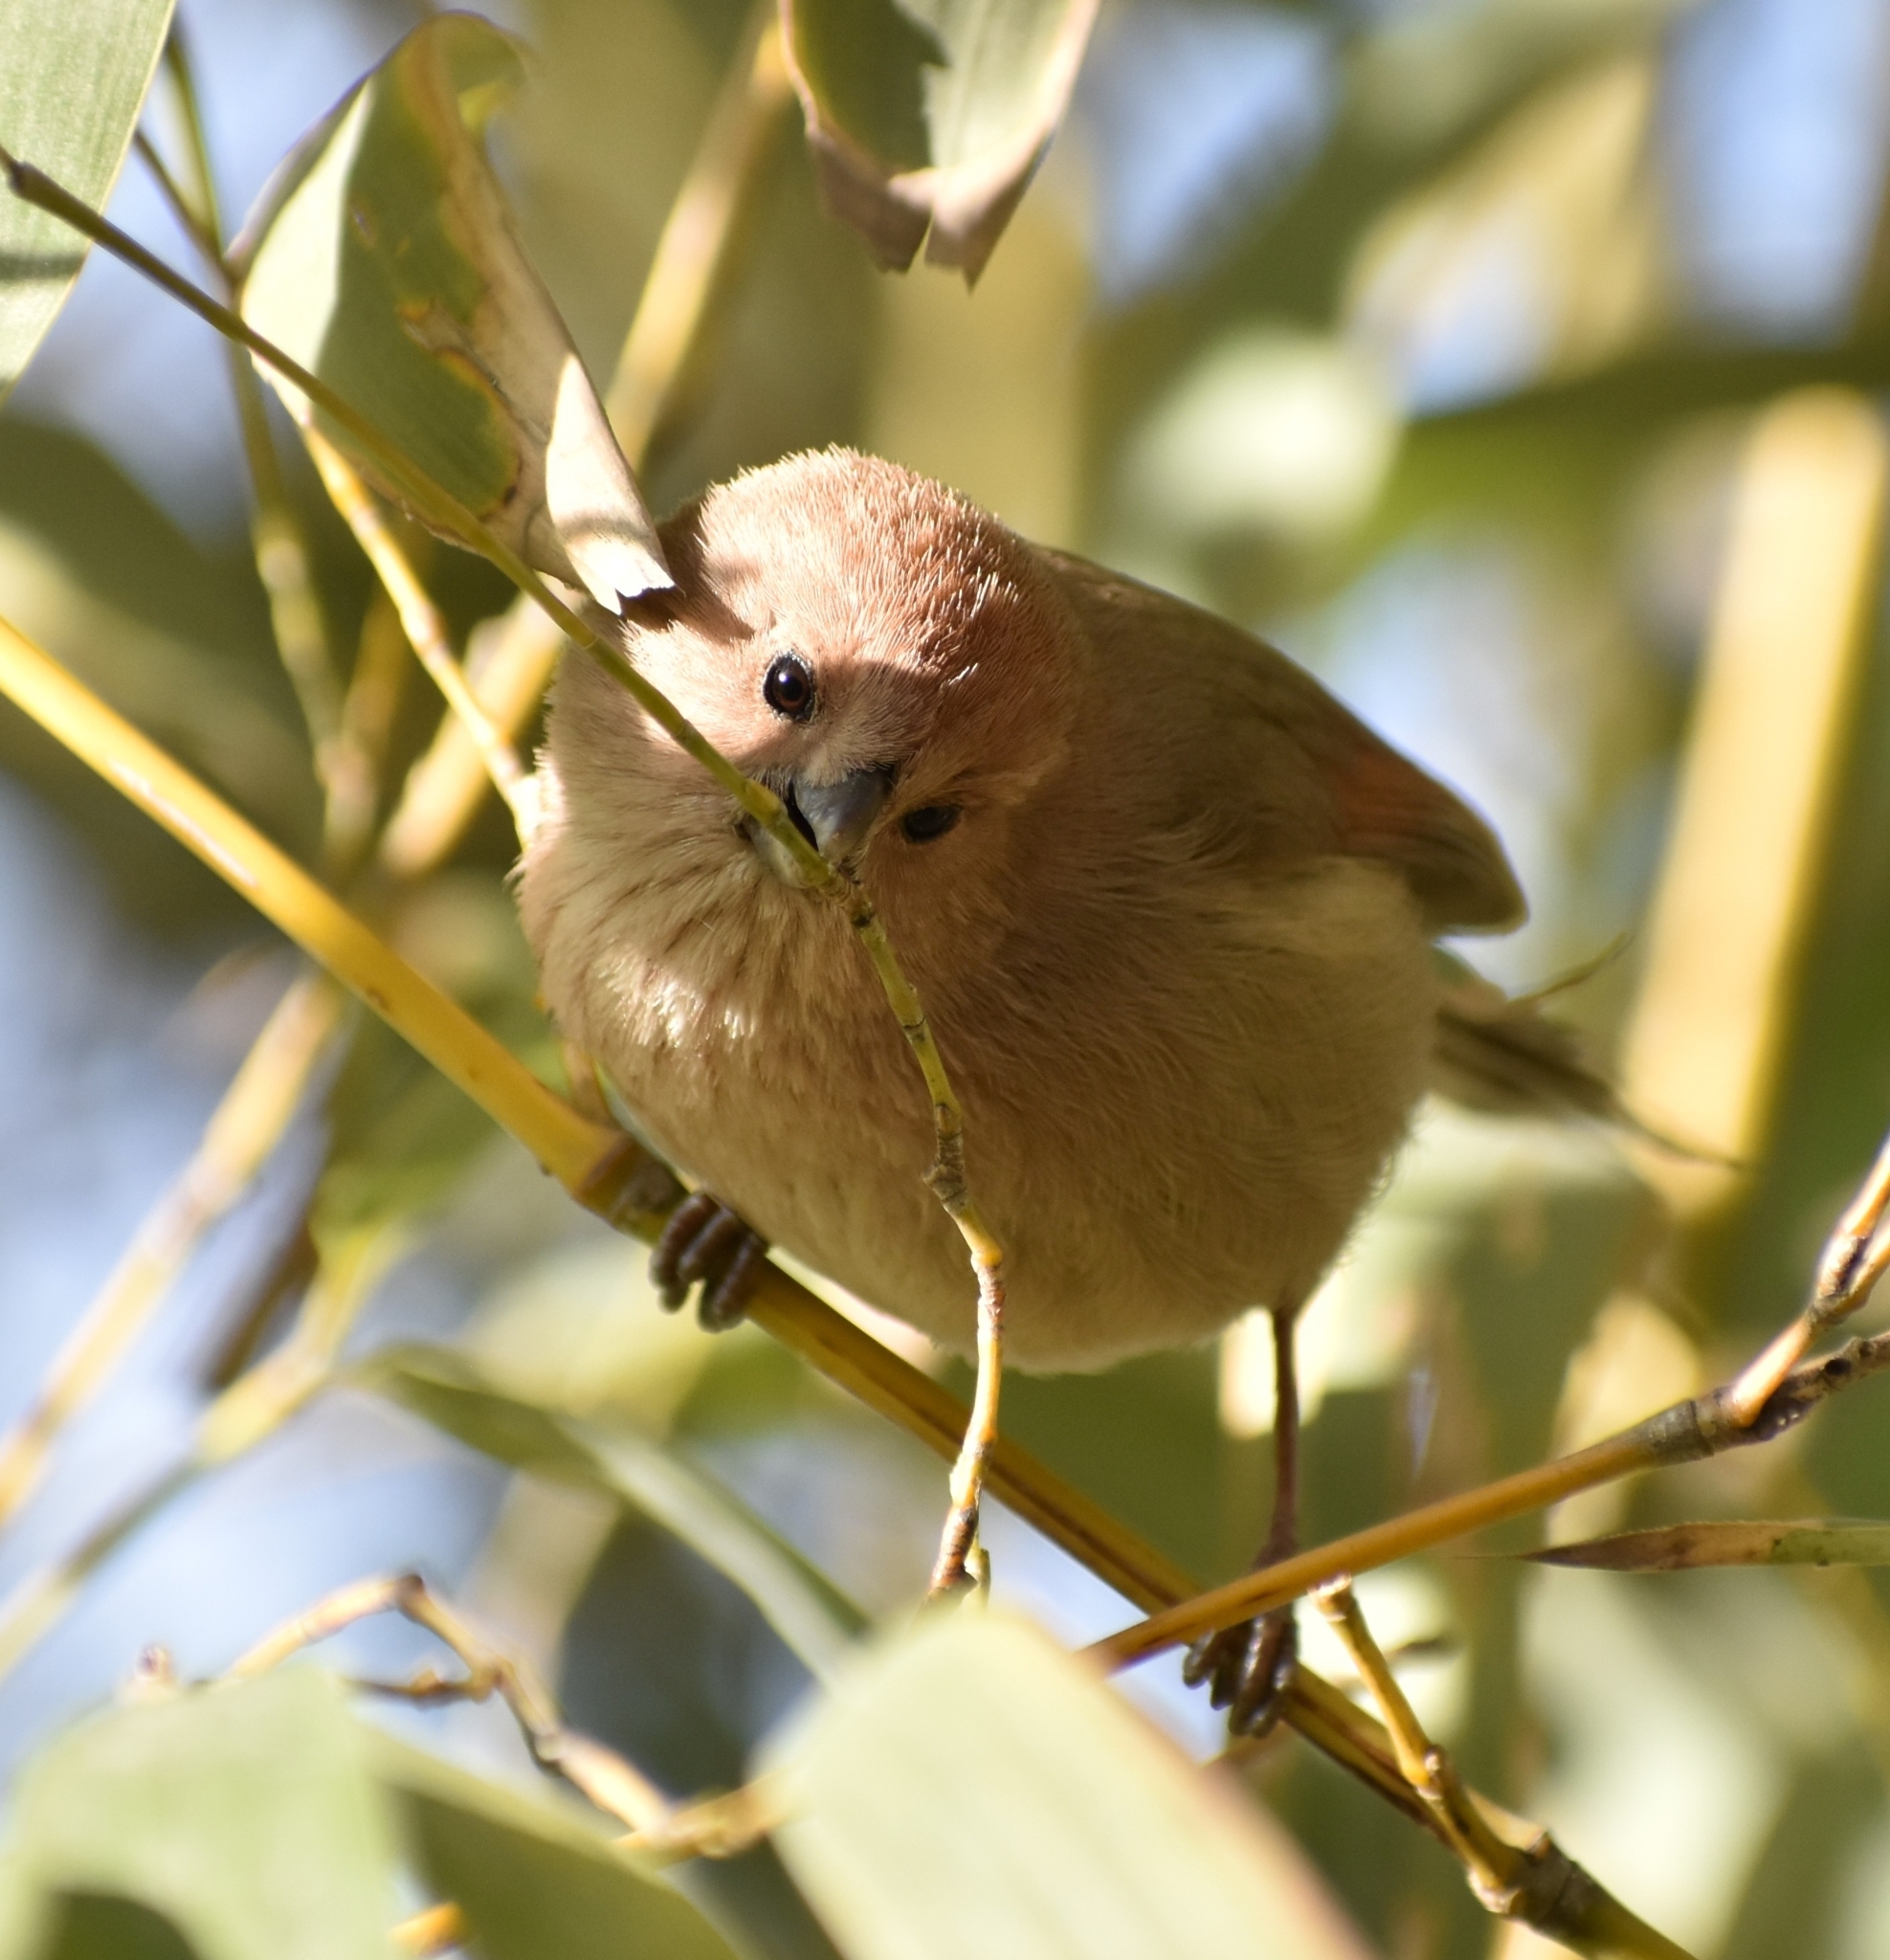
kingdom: Animalia
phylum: Chordata
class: Aves
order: Passeriformes
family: Sylviidae
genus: Sinosuthora
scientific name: Sinosuthora webbiana
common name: Vinous-throated parrotbill
